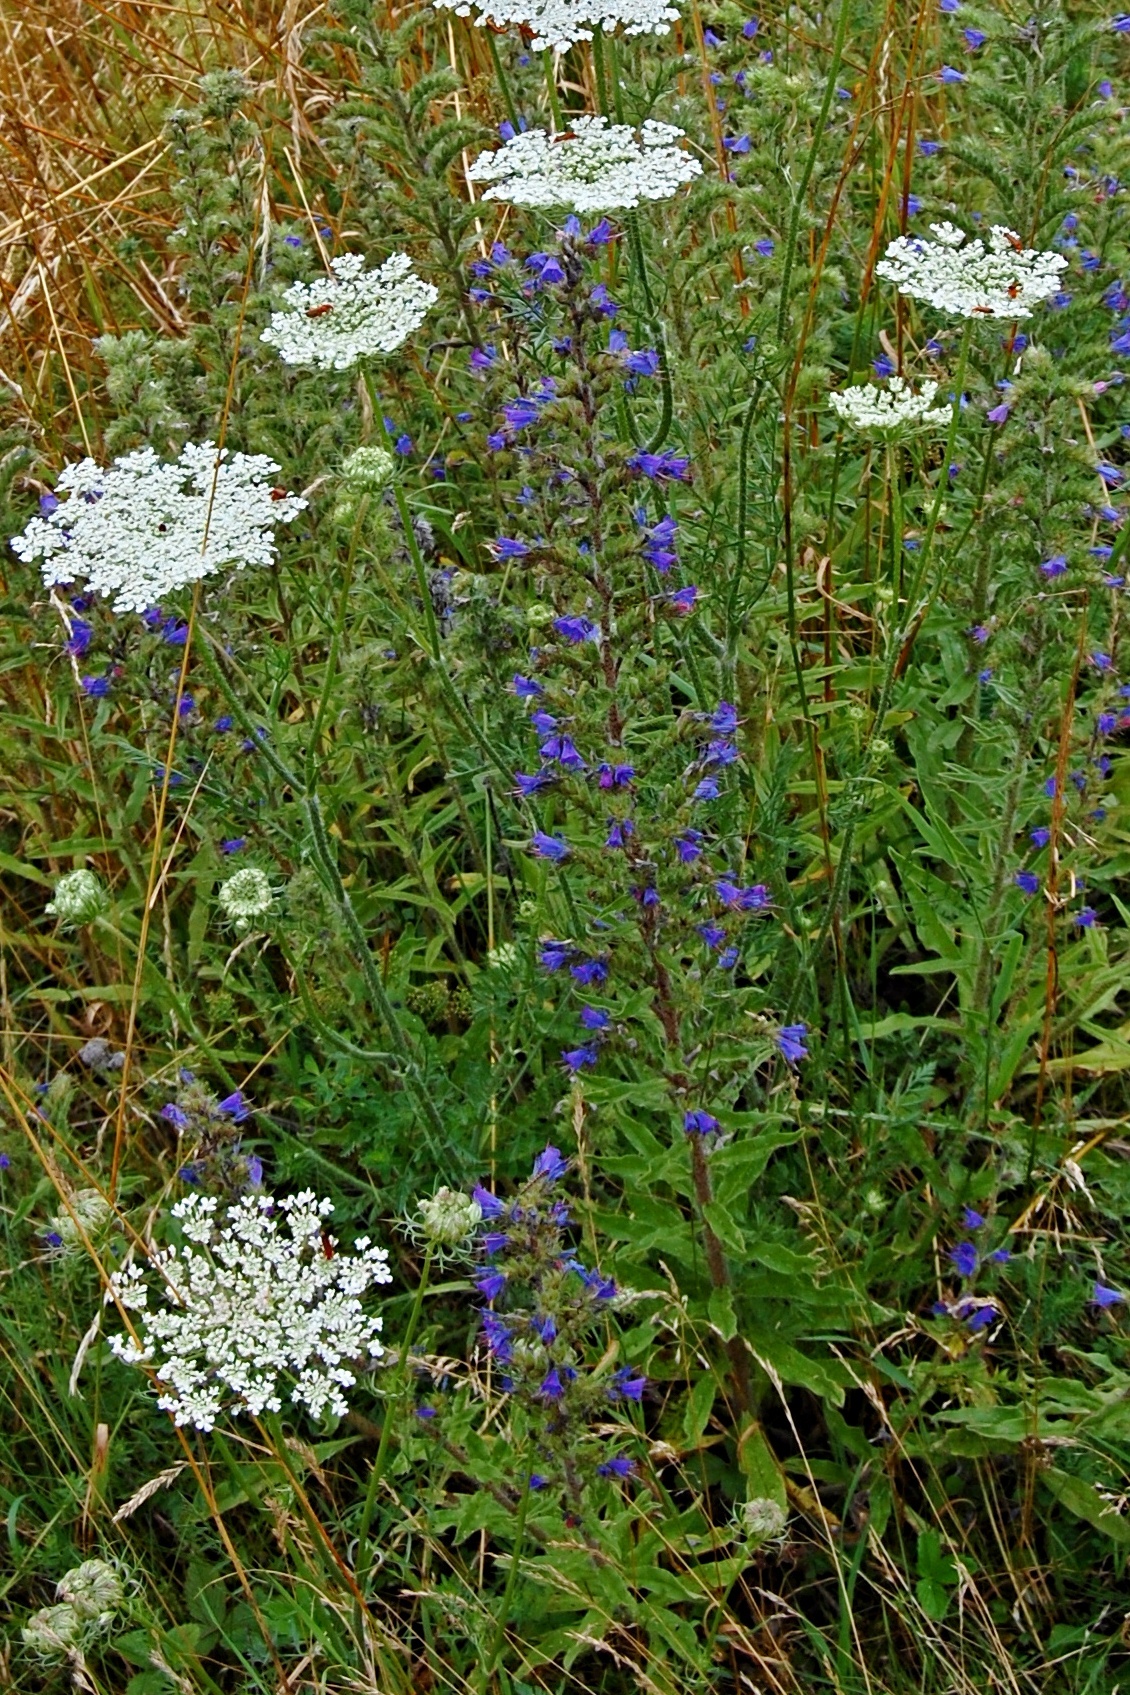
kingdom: Plantae
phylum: Tracheophyta
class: Magnoliopsida
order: Boraginales
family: Boraginaceae
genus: Echium
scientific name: Echium vulgare
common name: Common viper's bugloss
